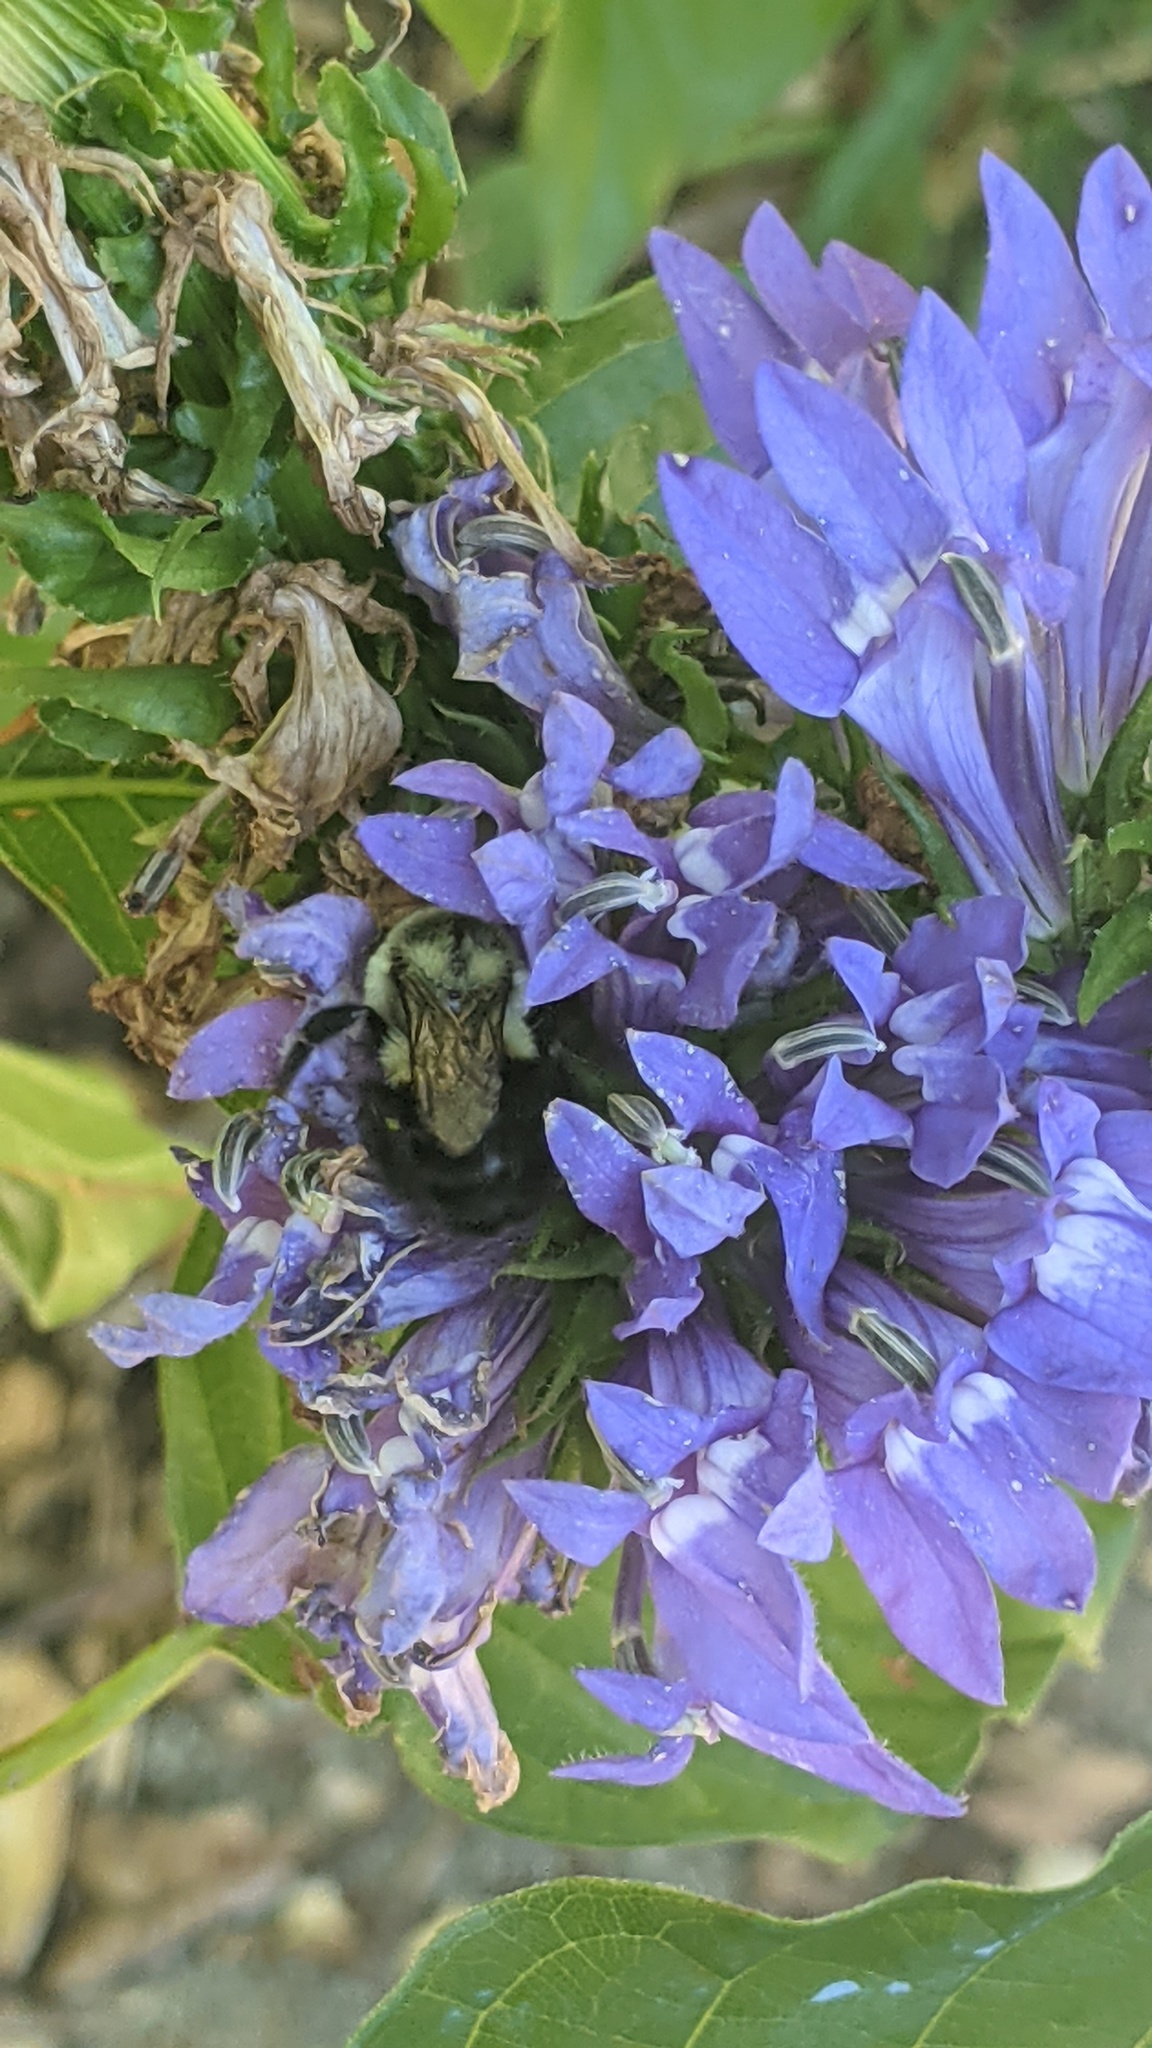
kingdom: Animalia
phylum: Arthropoda
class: Insecta
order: Hymenoptera
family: Apidae
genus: Bombus
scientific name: Bombus impatiens
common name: Common eastern bumble bee
